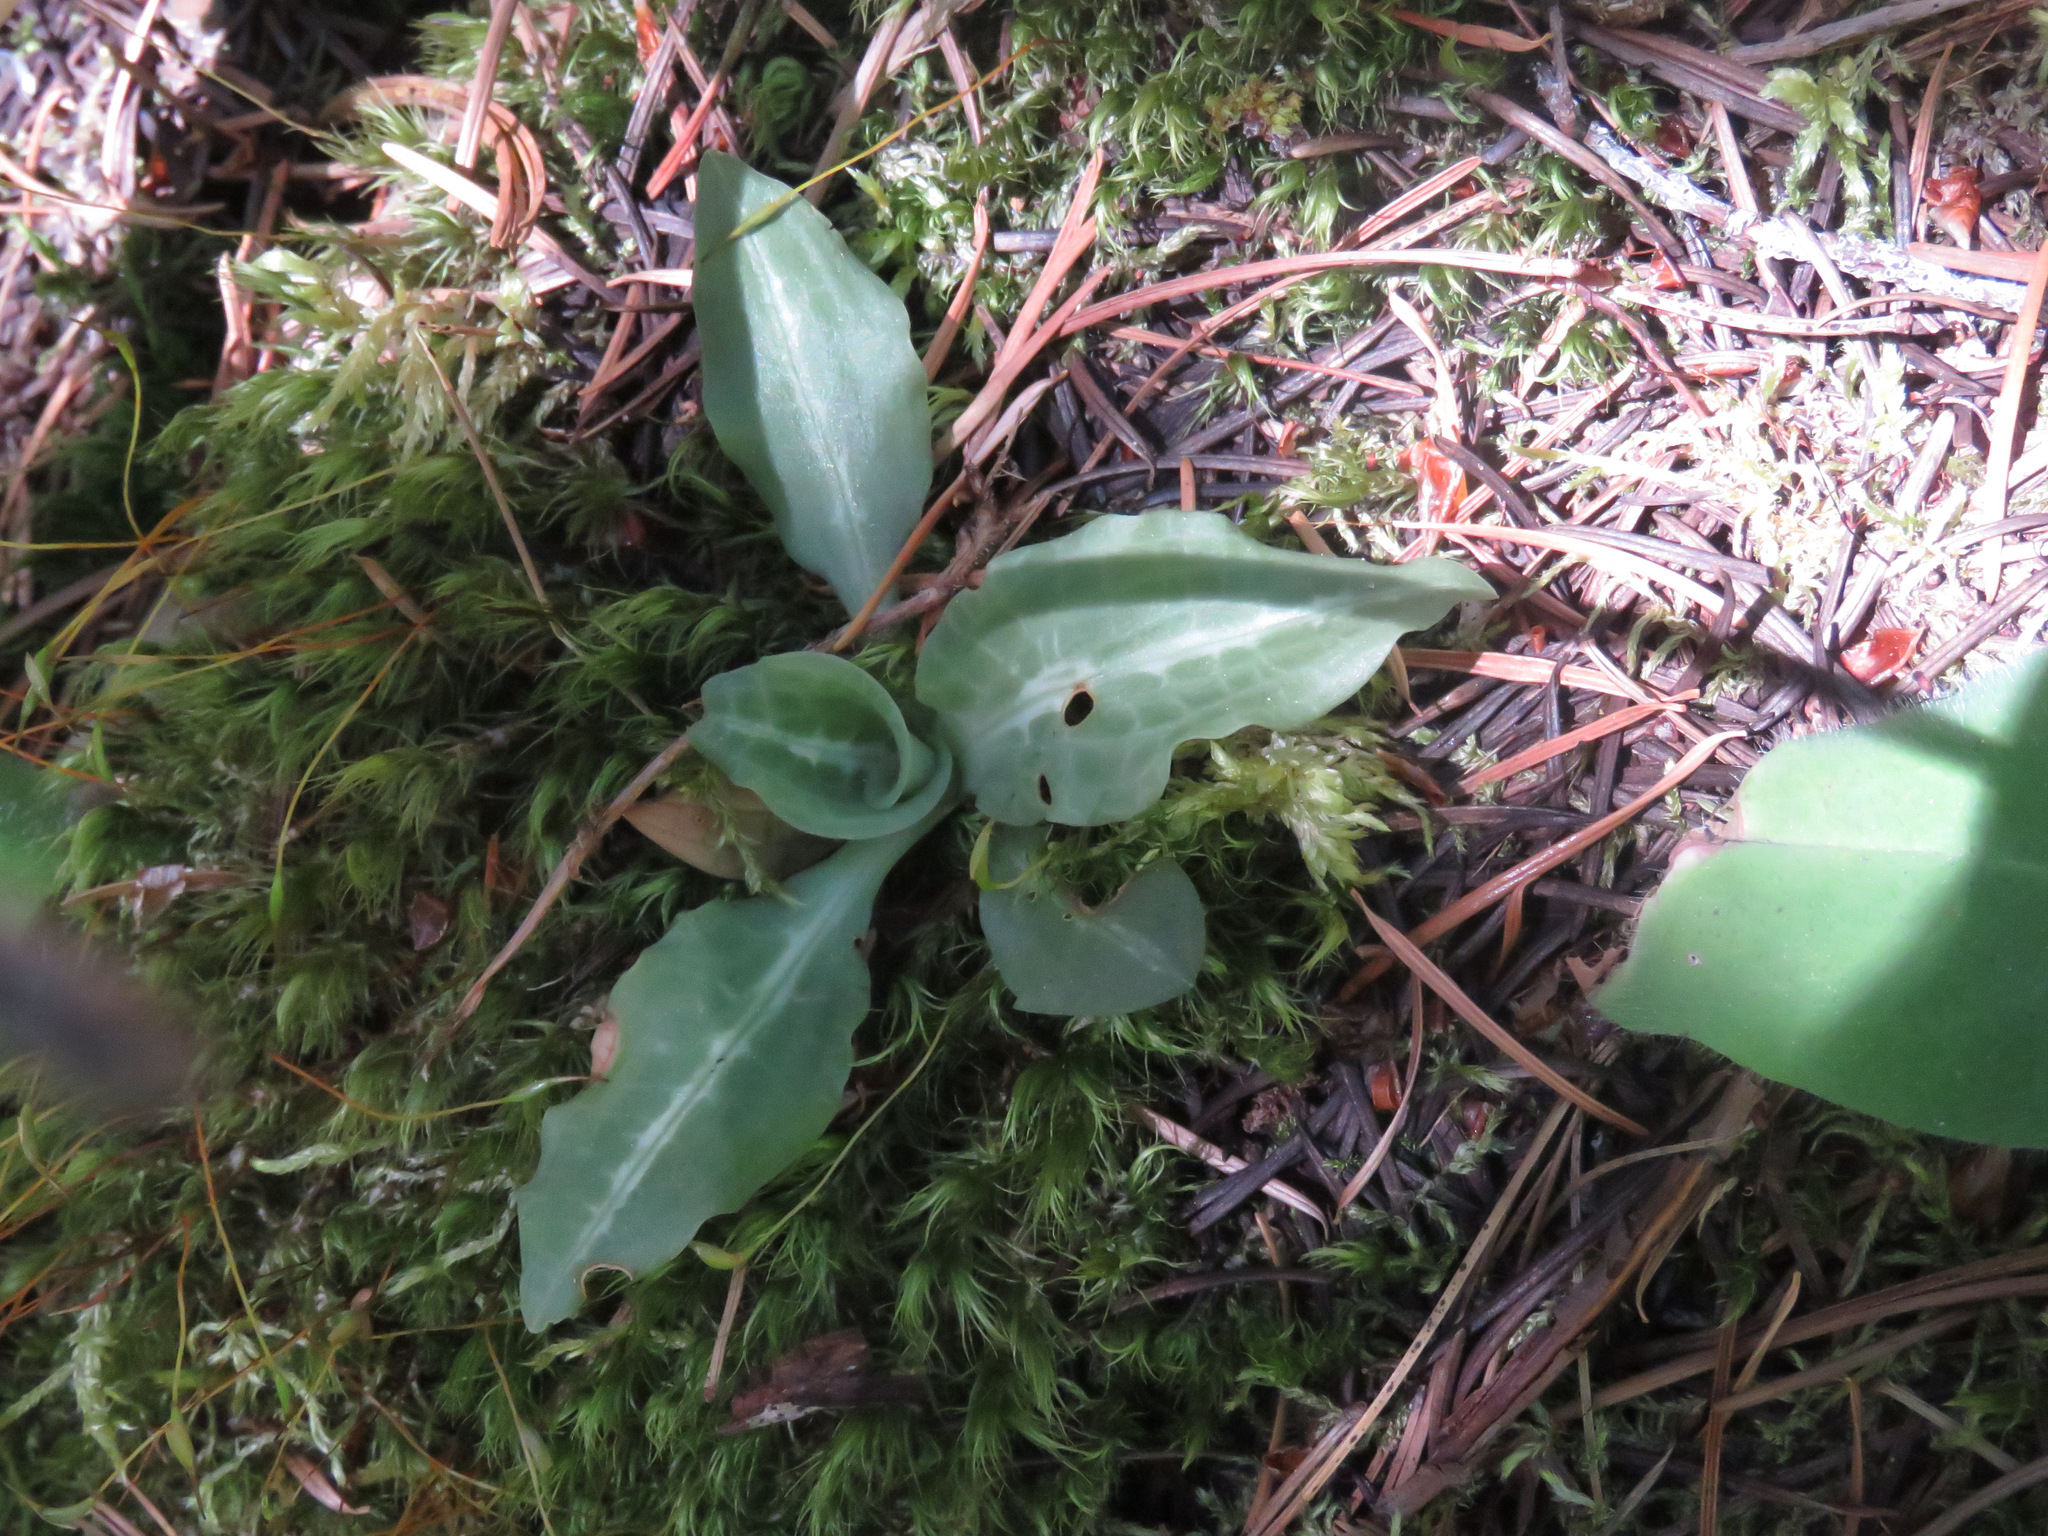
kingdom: Plantae
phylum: Tracheophyta
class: Liliopsida
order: Asparagales
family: Orchidaceae
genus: Goodyera
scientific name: Goodyera oblongifolia
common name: Giant rattlesnake-plantain
